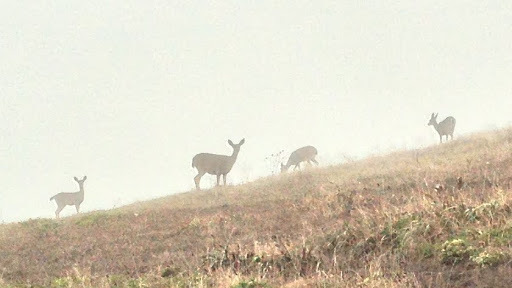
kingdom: Animalia
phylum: Chordata
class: Mammalia
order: Artiodactyla
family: Cervidae
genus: Odocoileus
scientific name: Odocoileus hemionus
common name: Mule deer
